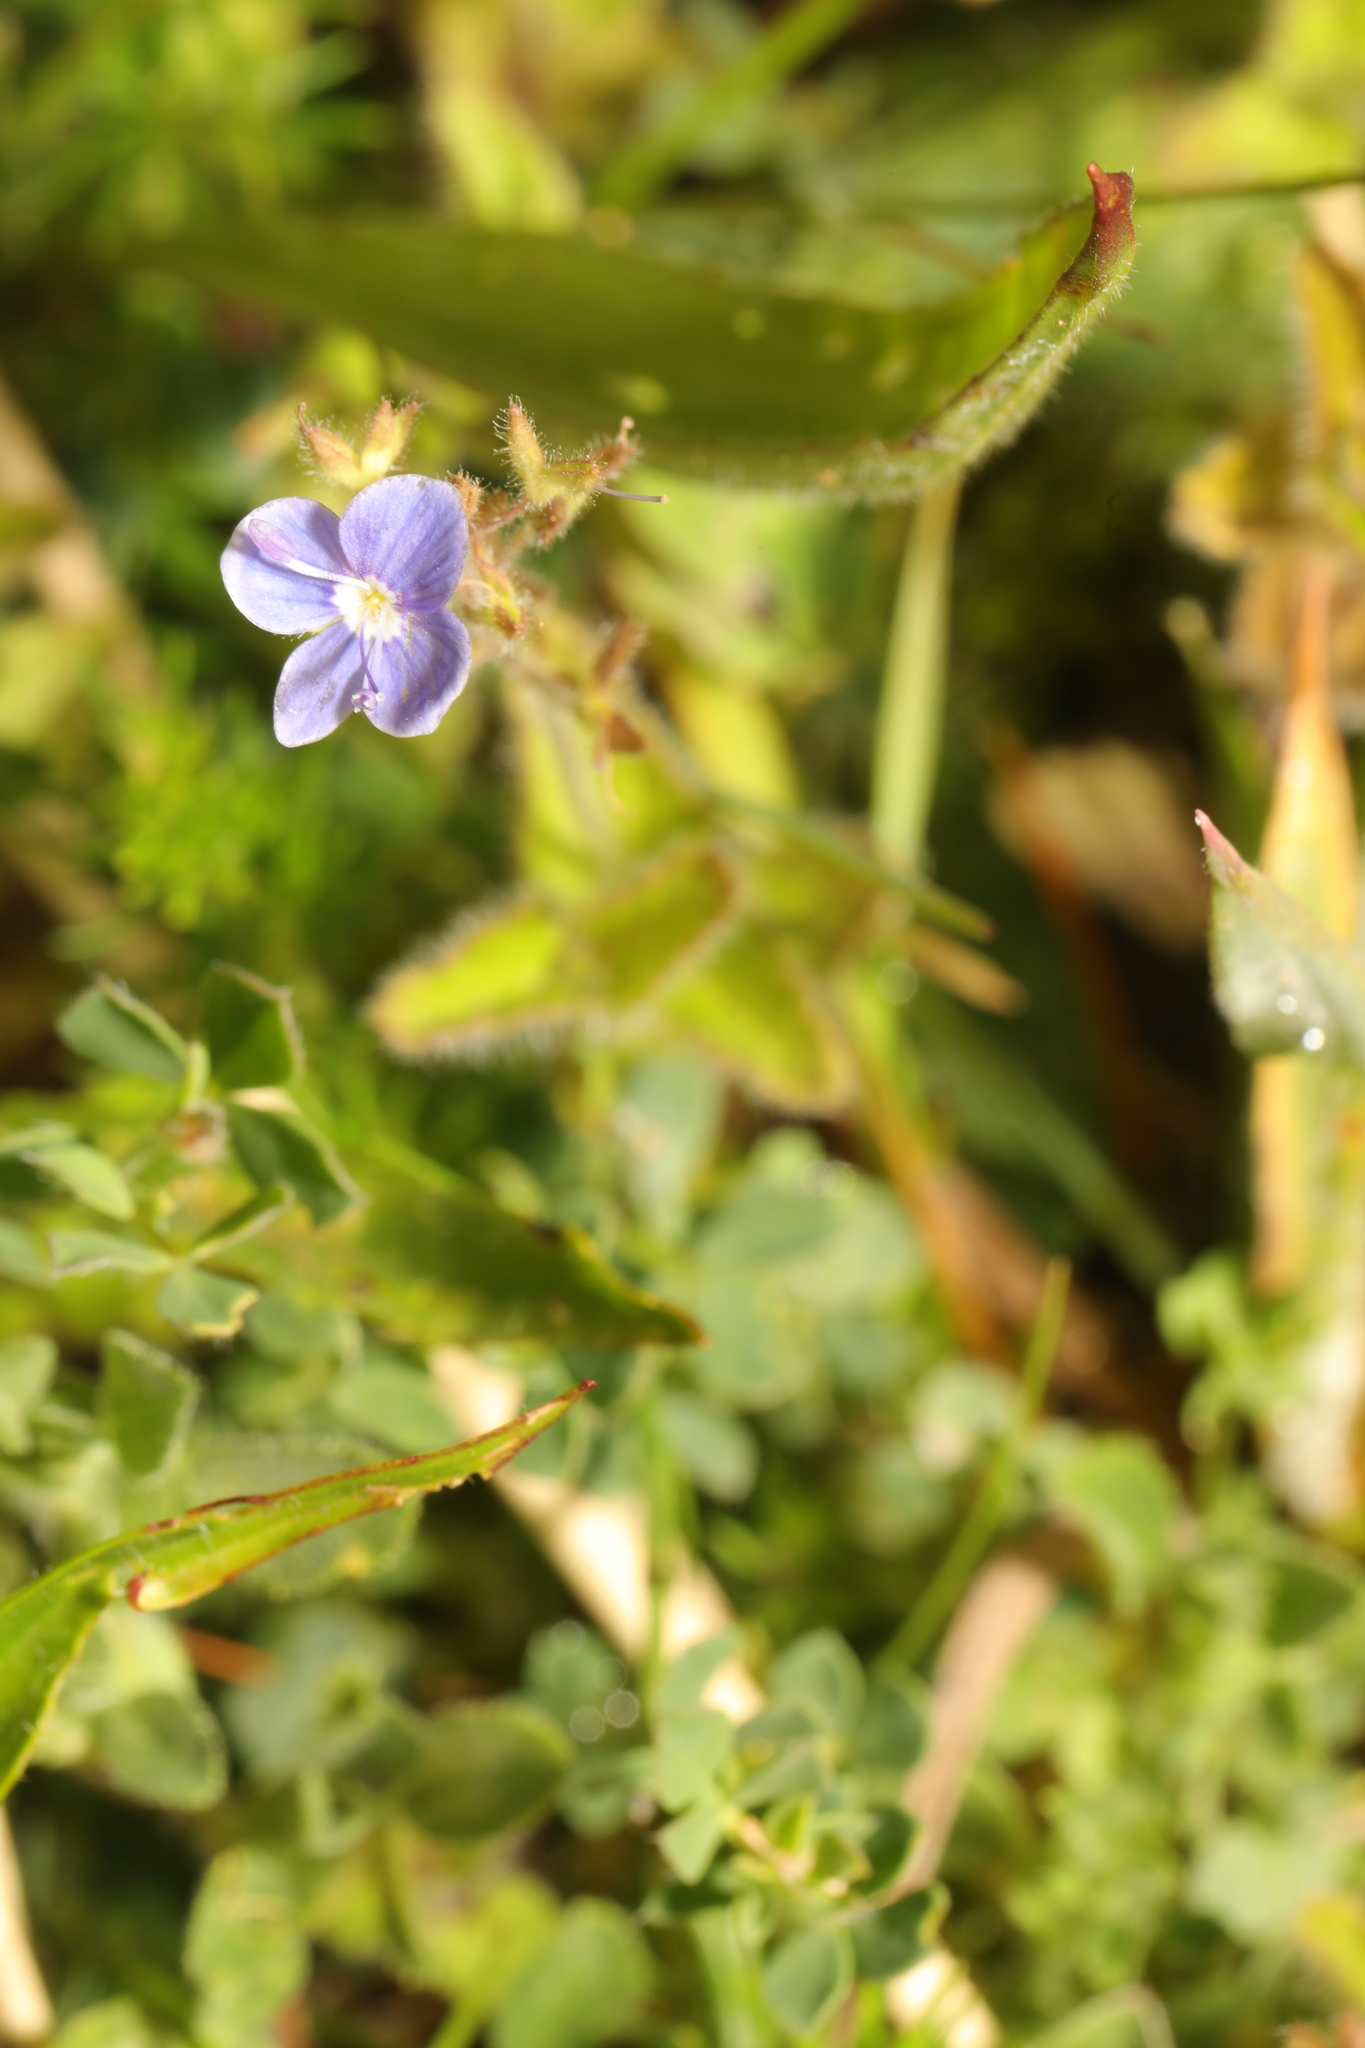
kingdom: Plantae
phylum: Tracheophyta
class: Magnoliopsida
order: Lamiales
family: Plantaginaceae
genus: Veronica
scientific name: Veronica chamaedrys
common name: Germander speedwell
